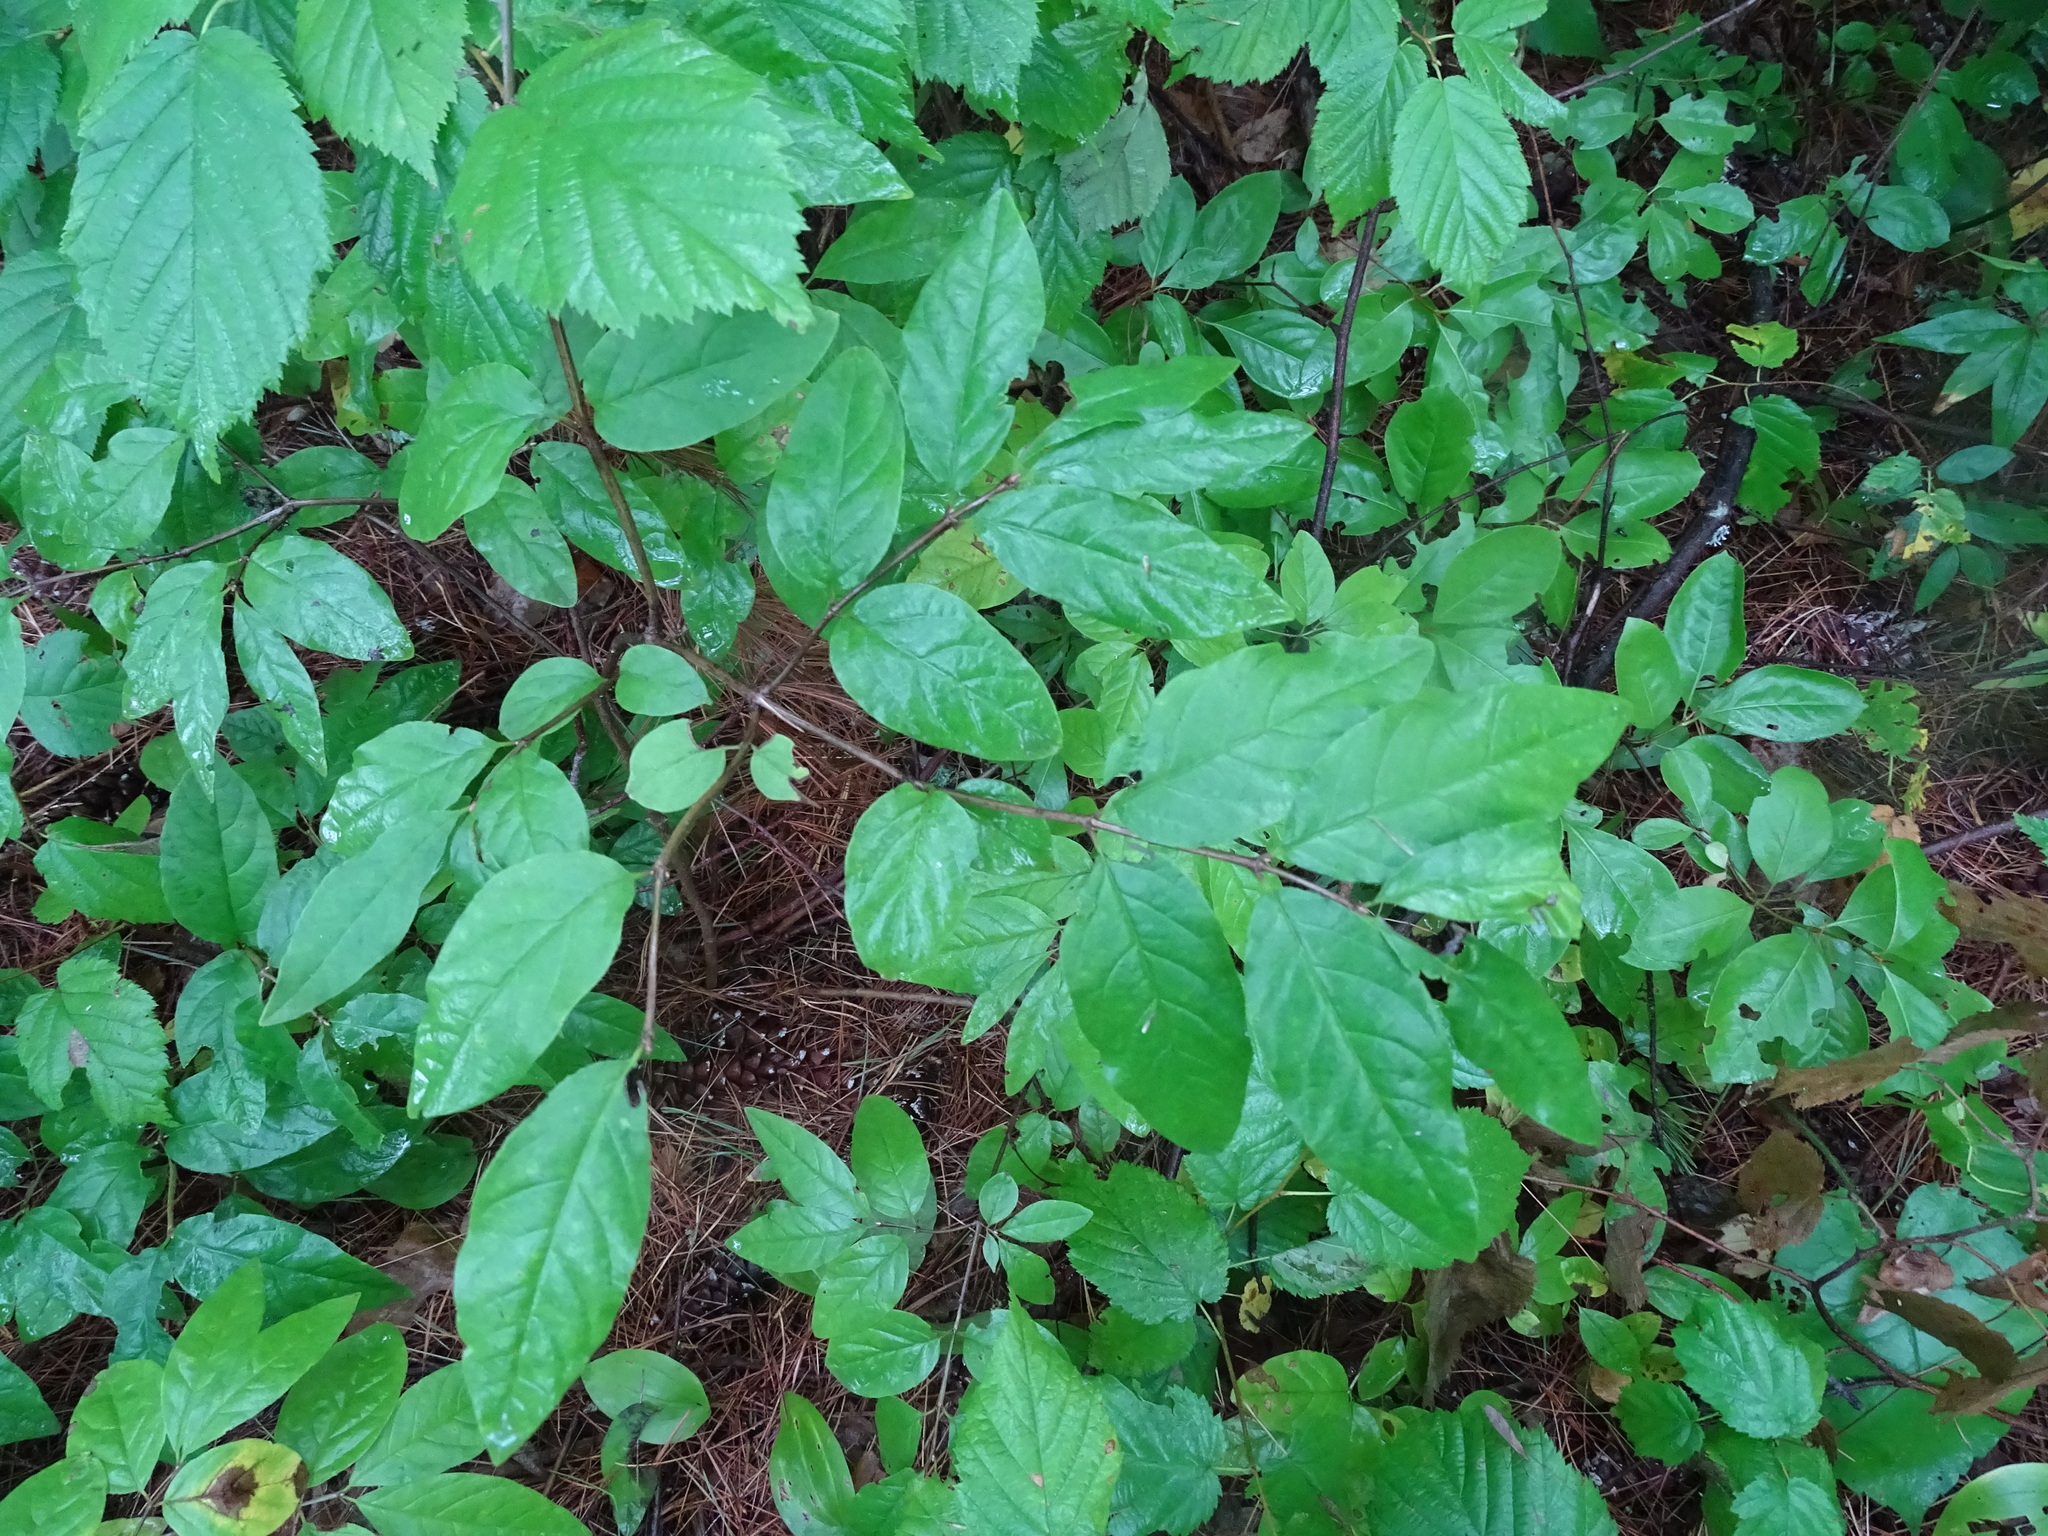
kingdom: Plantae
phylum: Tracheophyta
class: Magnoliopsida
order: Dipsacales
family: Caprifoliaceae
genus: Lonicera
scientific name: Lonicera canadensis
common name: American fly-honeysuckle
